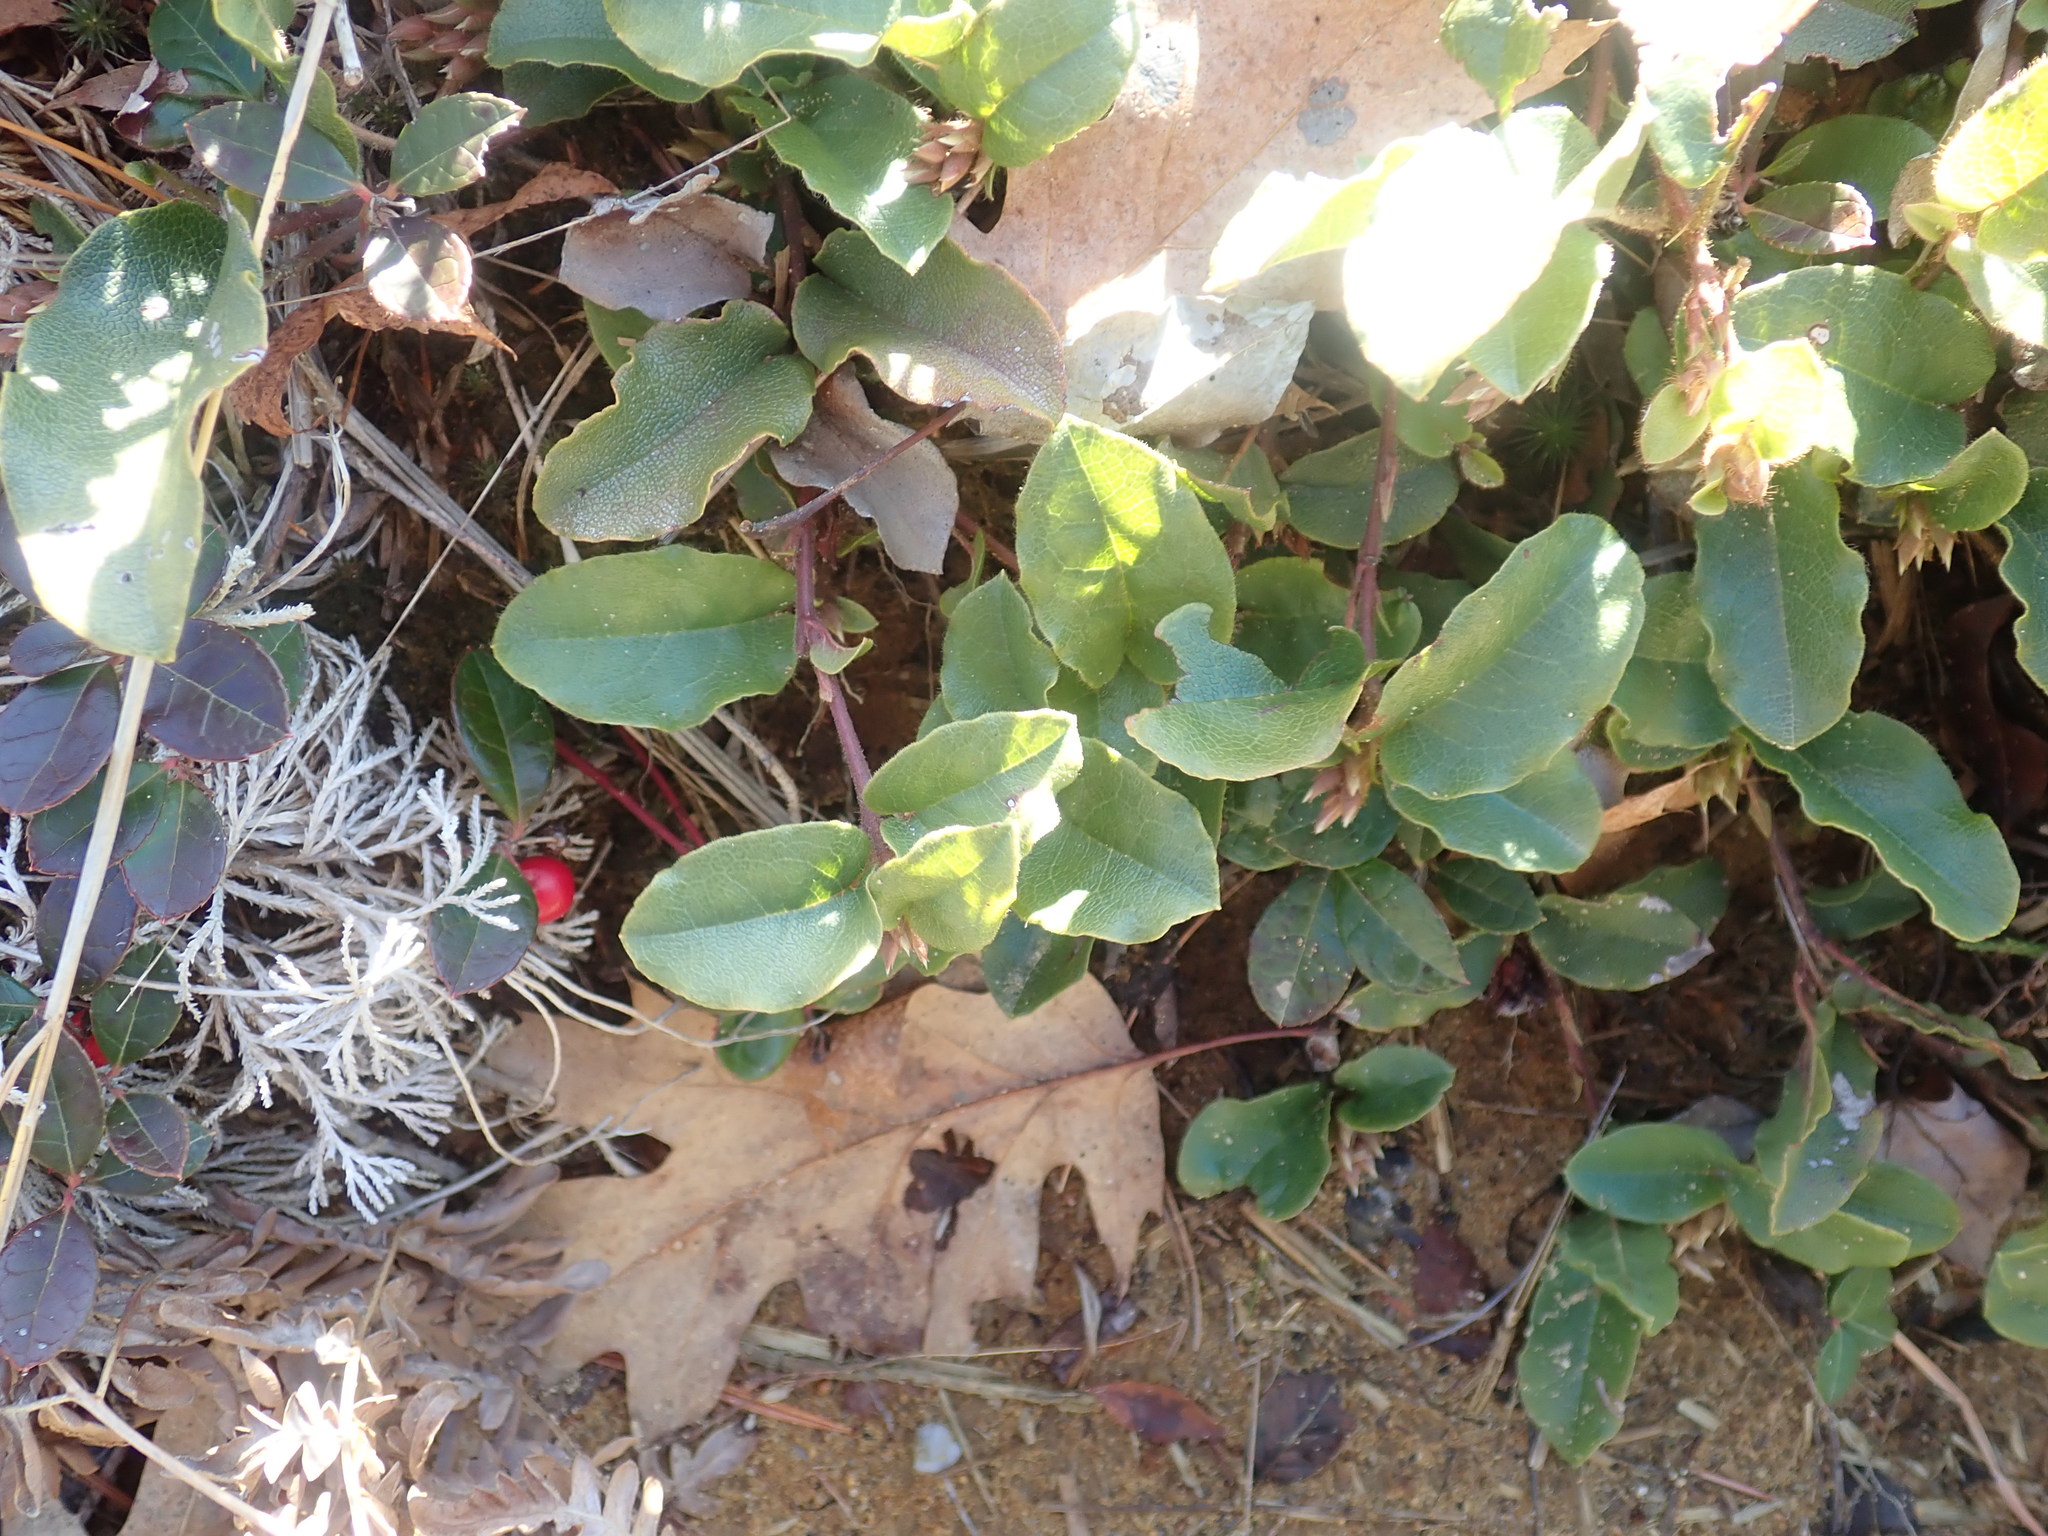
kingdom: Plantae
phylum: Tracheophyta
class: Magnoliopsida
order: Ericales
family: Ericaceae
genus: Epigaea
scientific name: Epigaea repens
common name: Gravelroot
